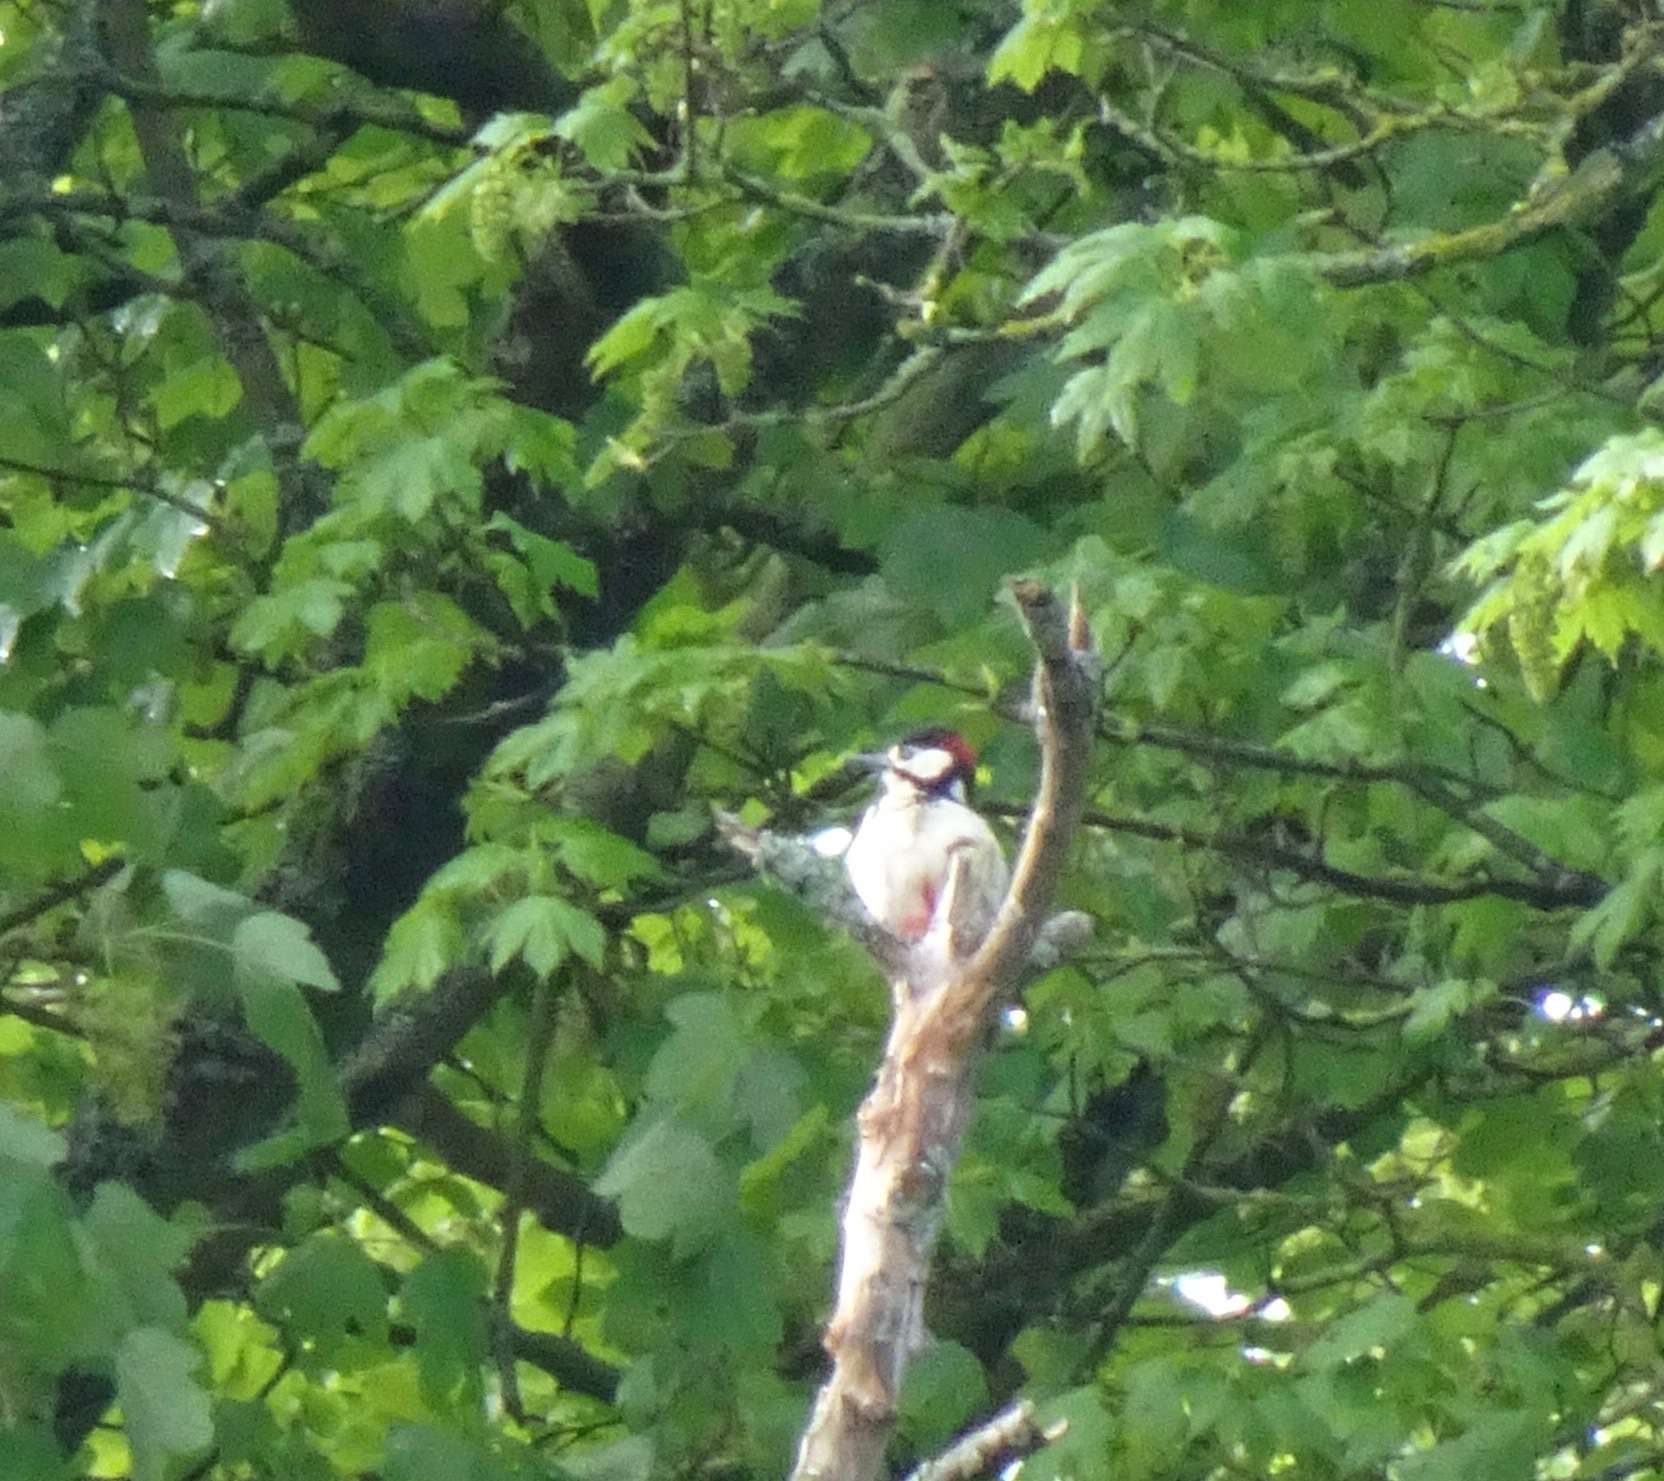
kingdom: Animalia
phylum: Chordata
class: Aves
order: Piciformes
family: Picidae
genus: Dendrocopos
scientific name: Dendrocopos major
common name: Great spotted woodpecker
